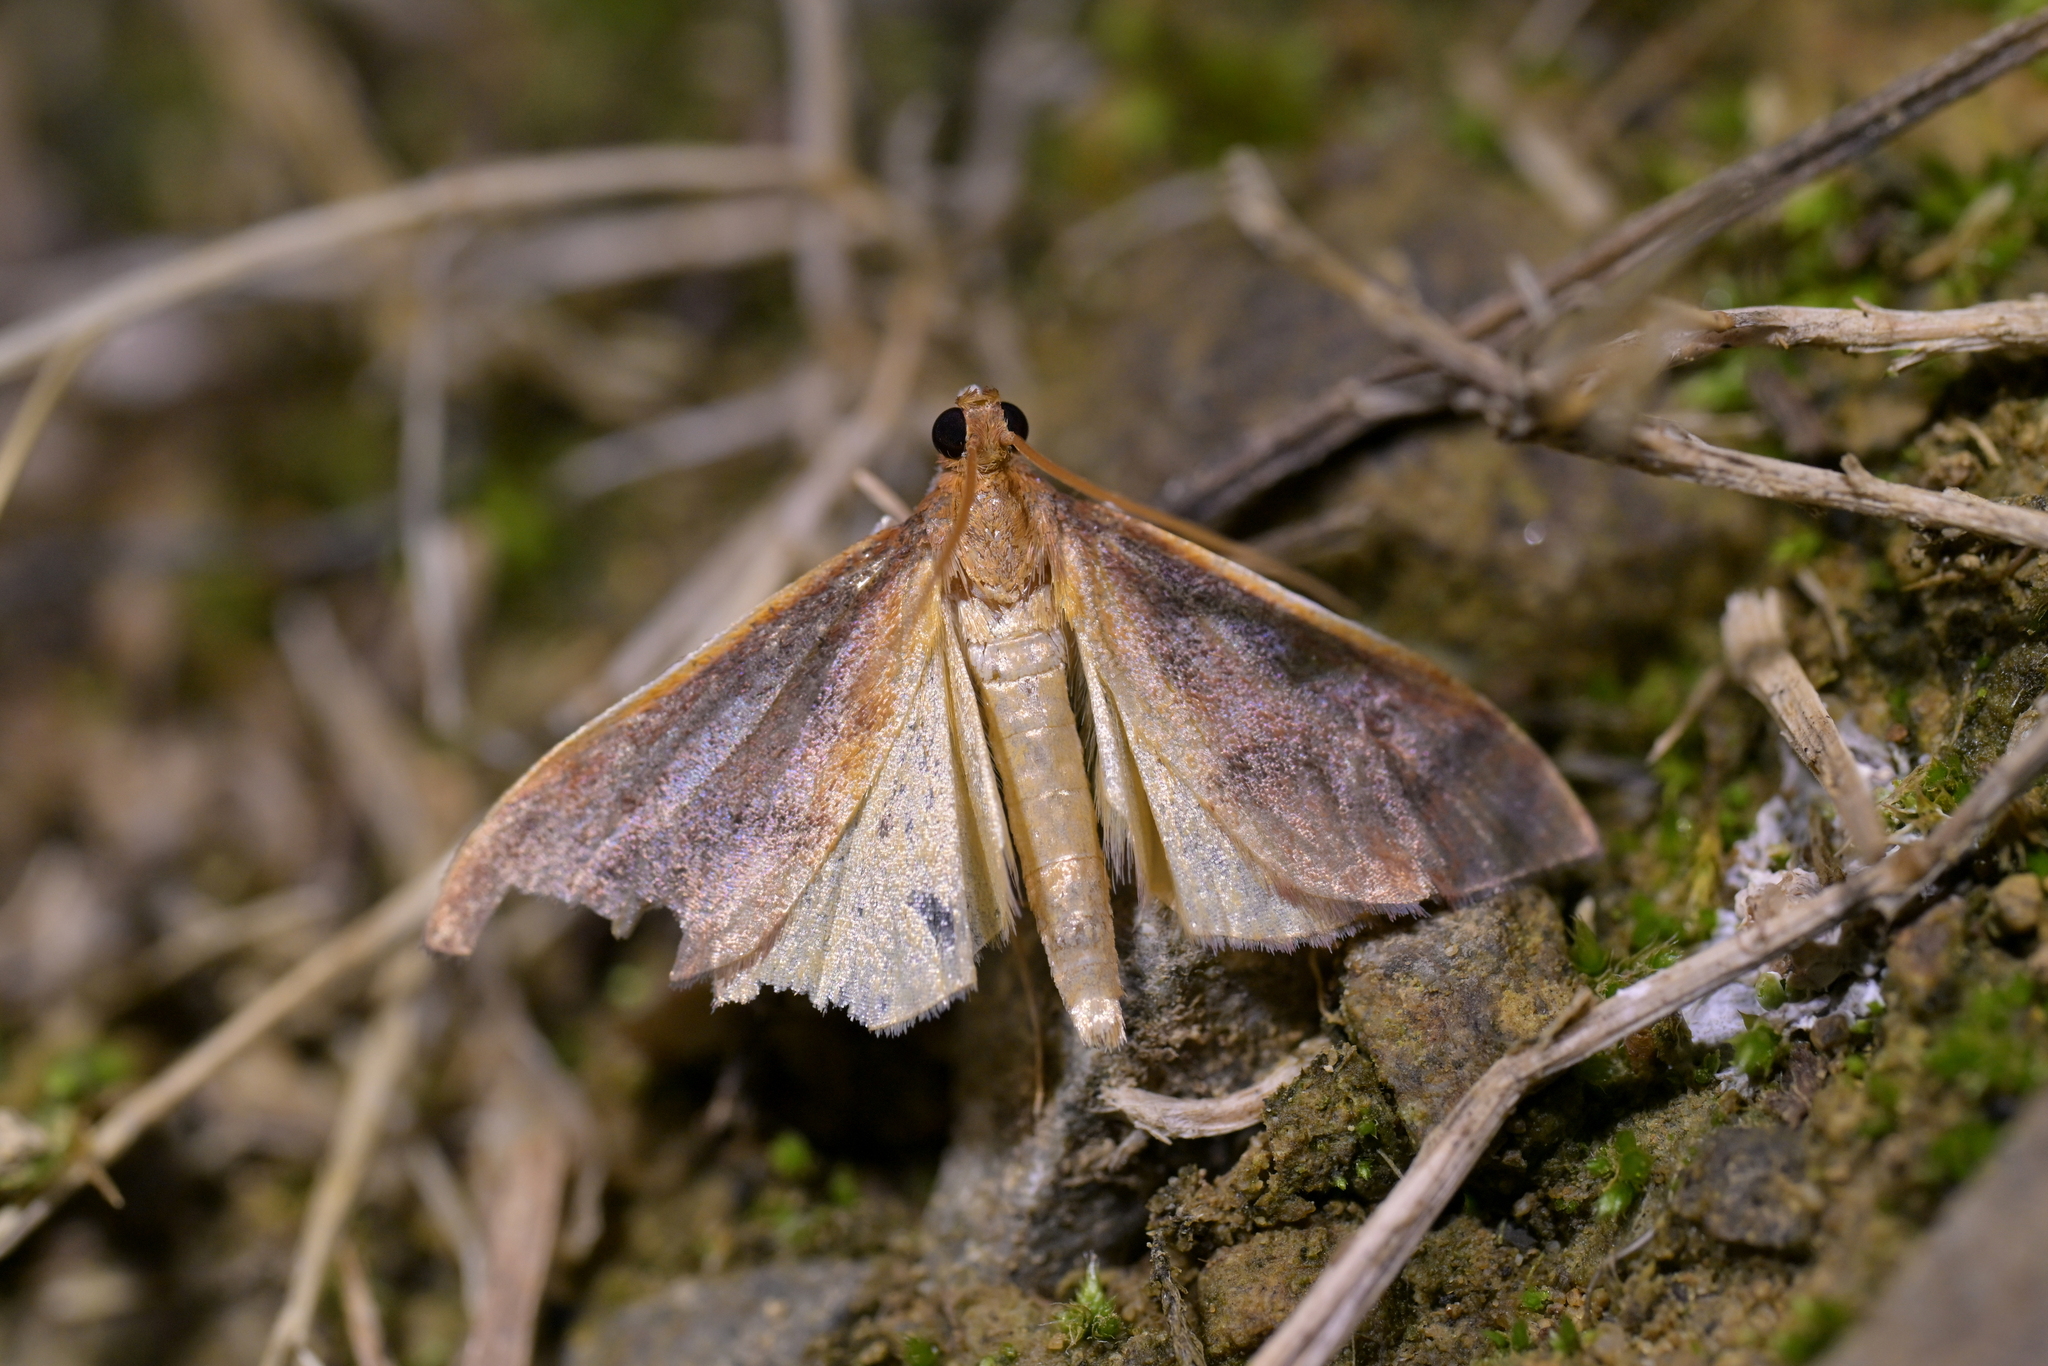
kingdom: Animalia
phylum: Arthropoda
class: Insecta
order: Lepidoptera
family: Crambidae
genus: Udea
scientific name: Udea daiclesalis
